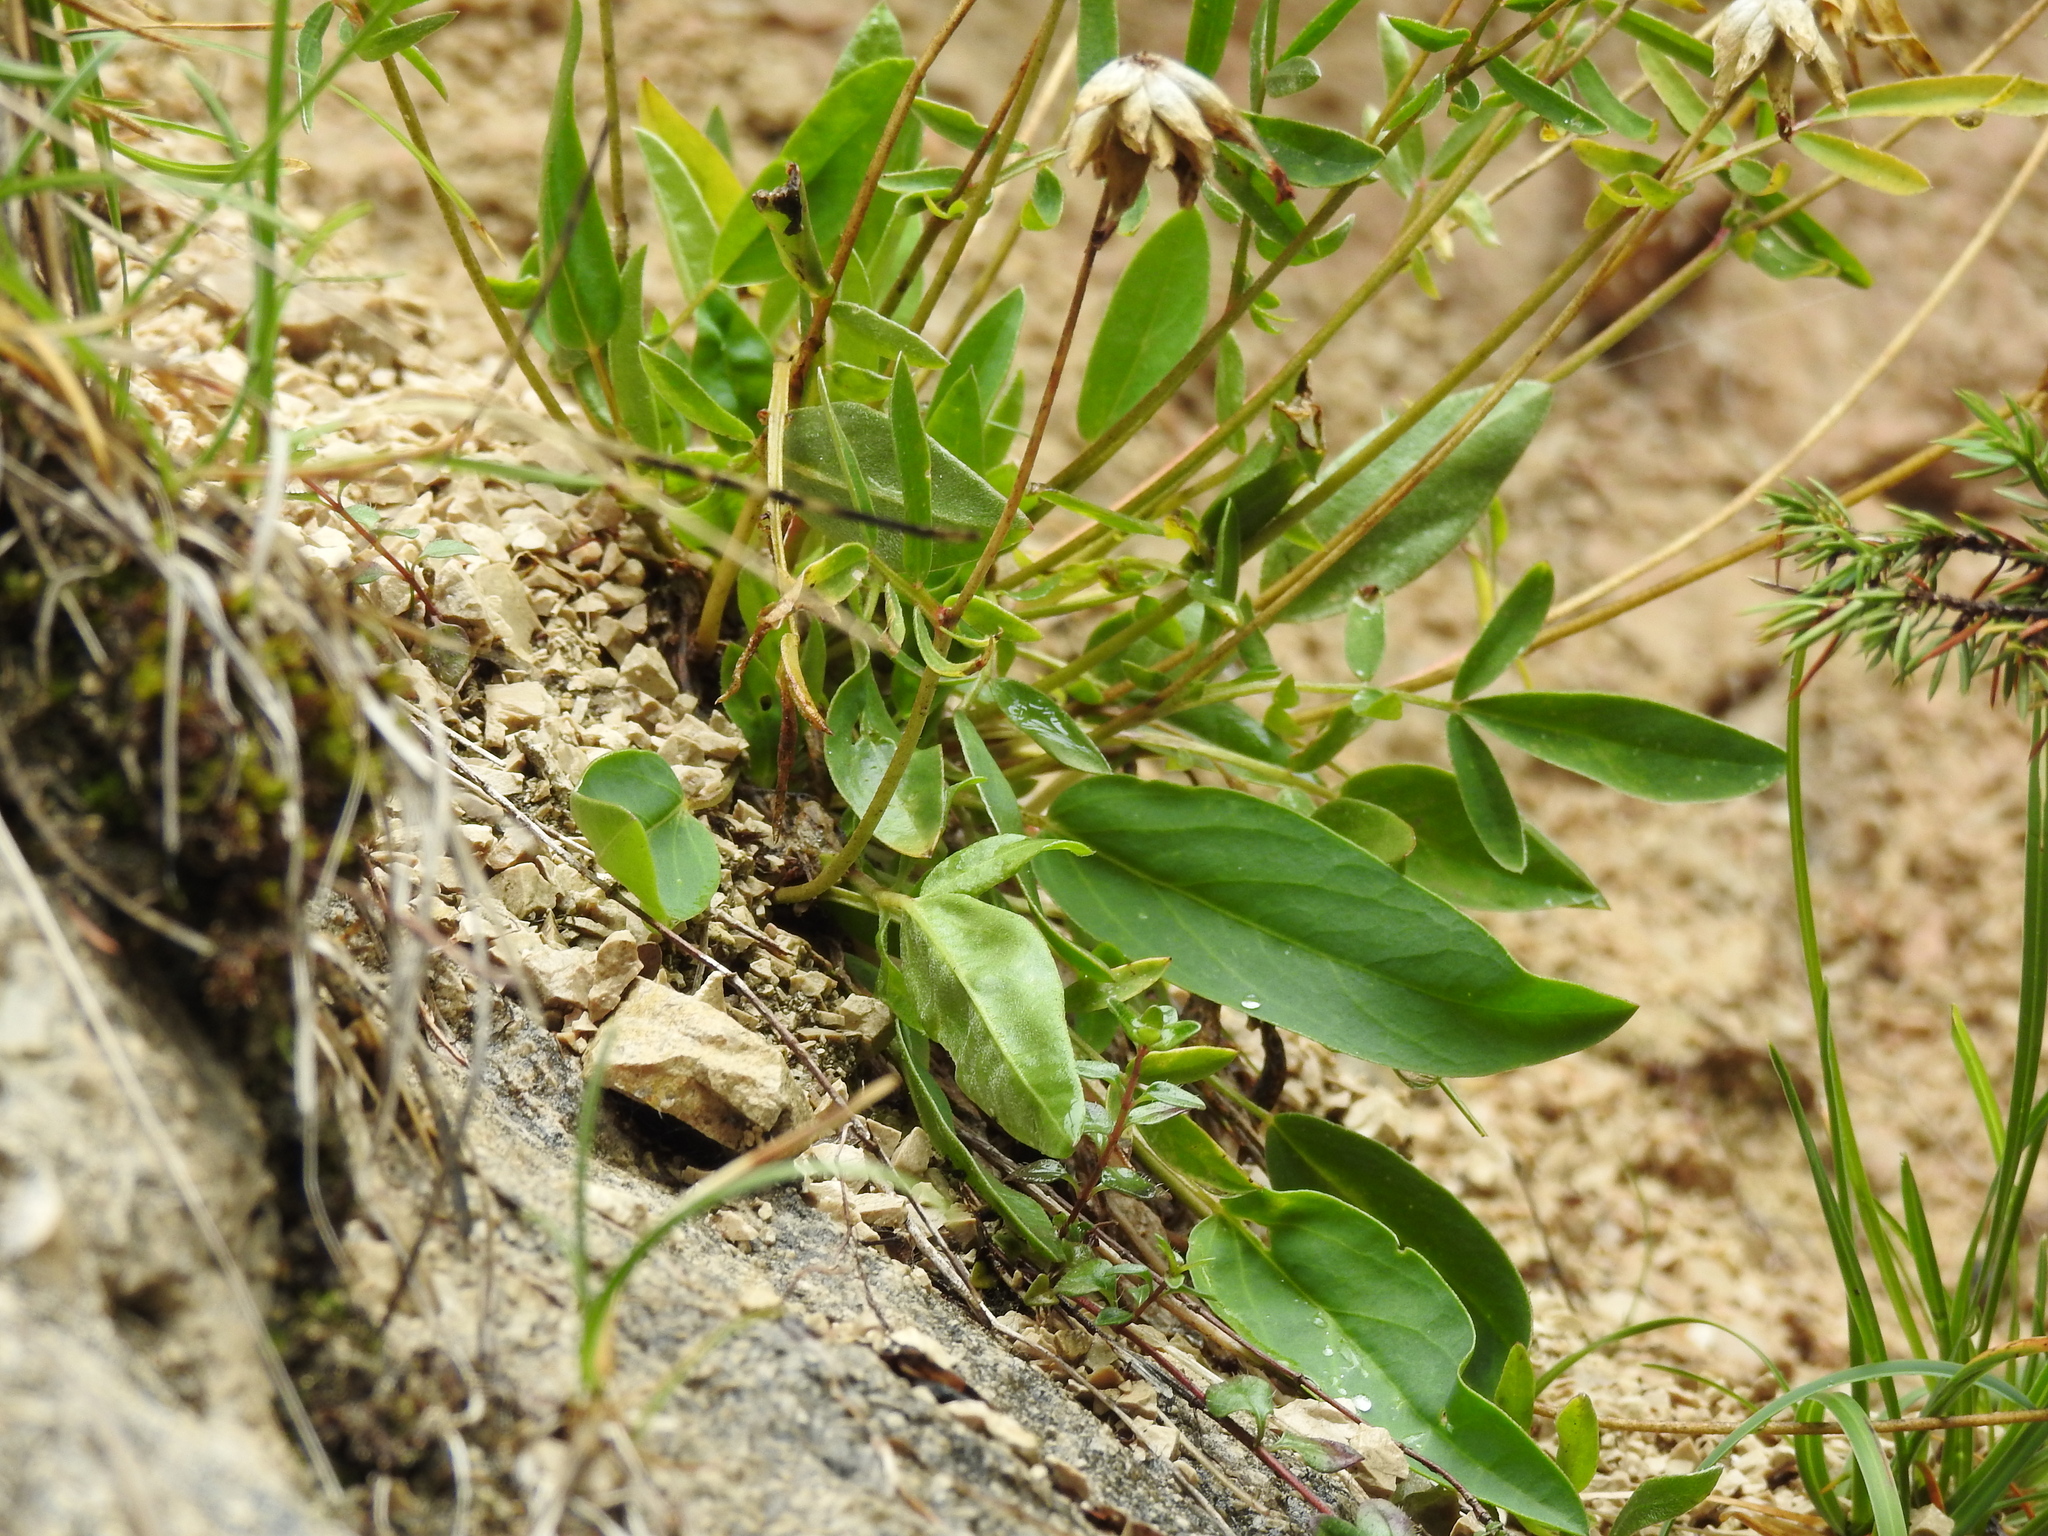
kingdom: Plantae
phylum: Tracheophyta
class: Magnoliopsida
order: Fabales
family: Fabaceae
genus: Anthyllis
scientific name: Anthyllis vulneraria
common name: Kidney vetch
